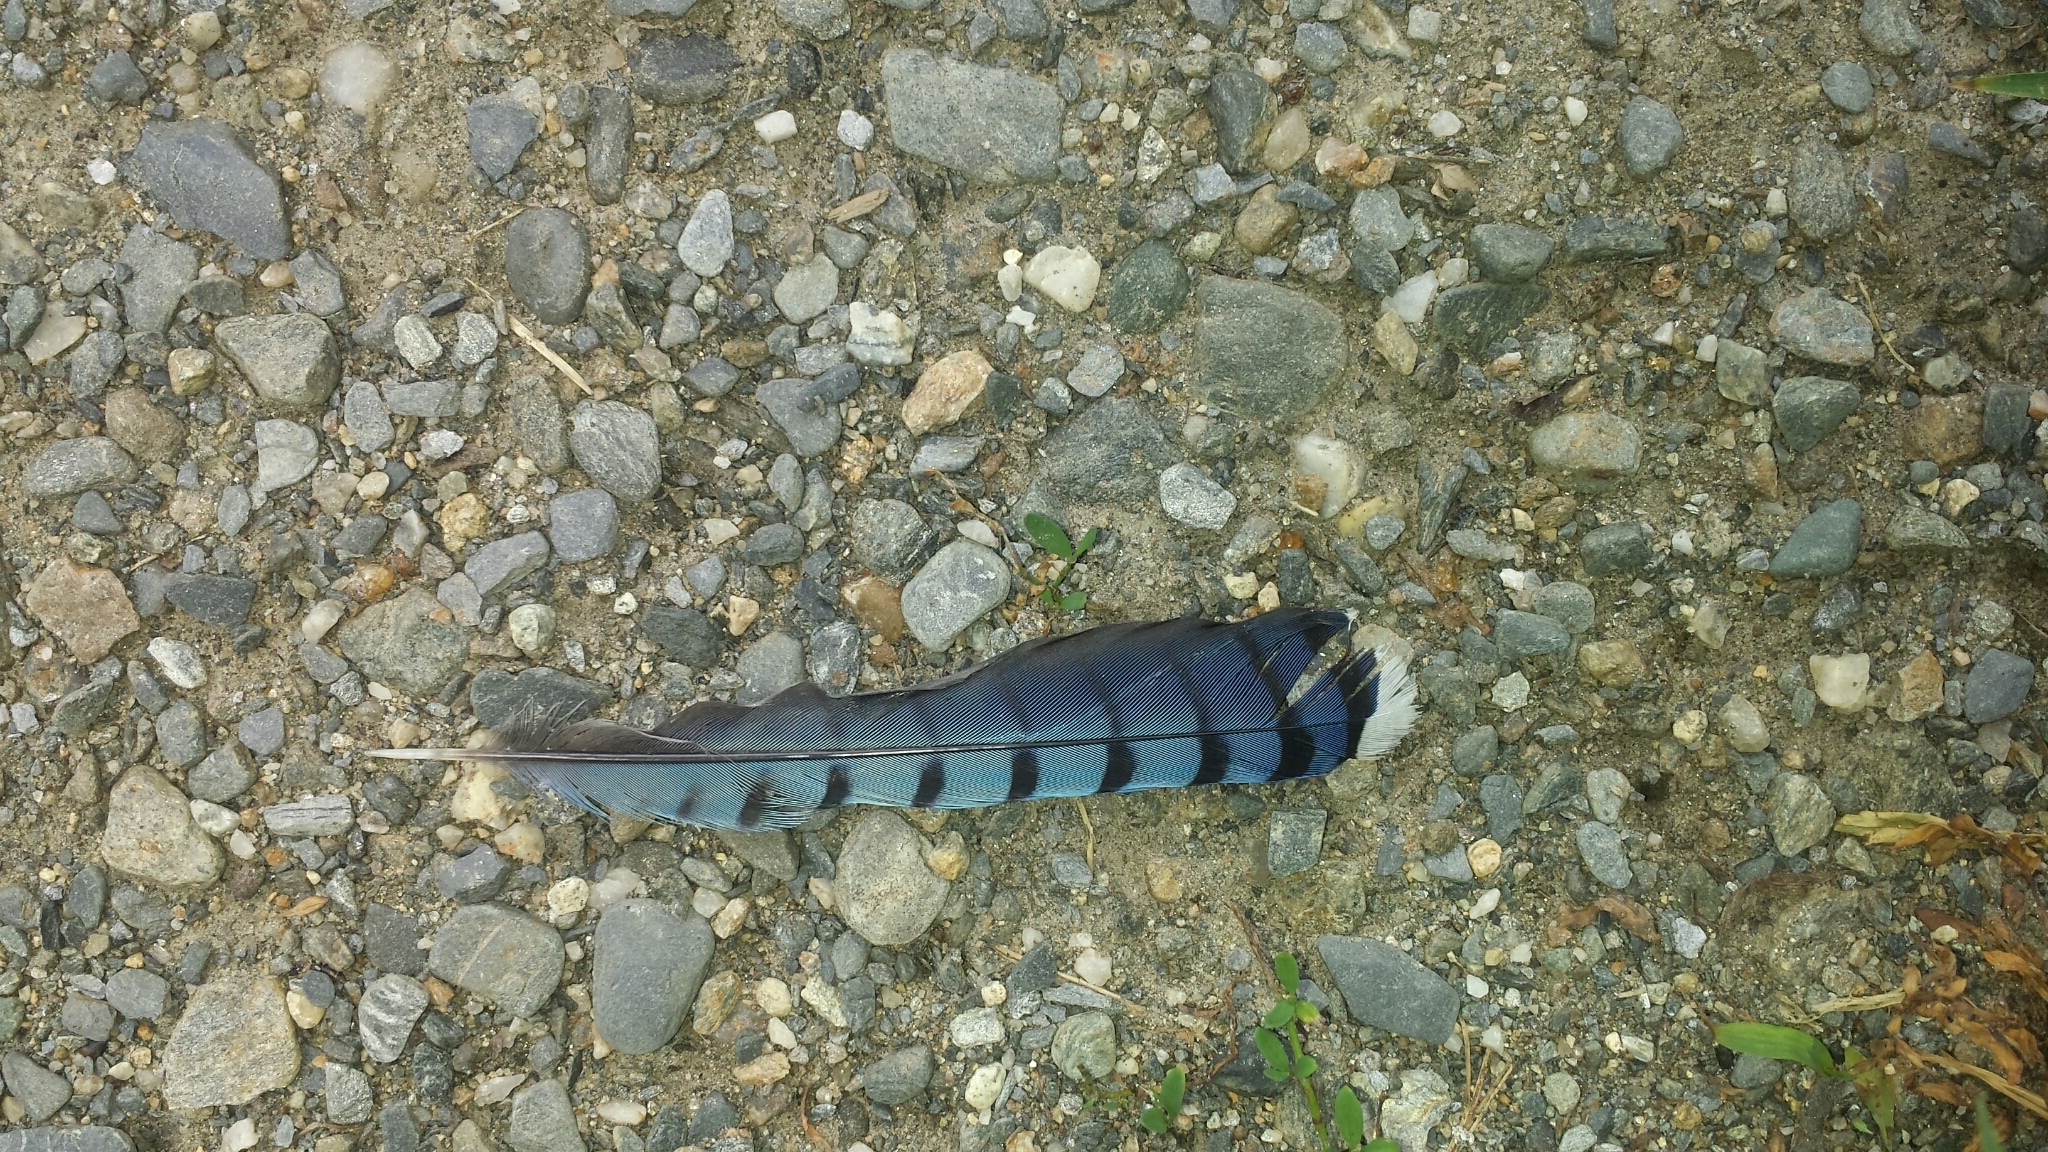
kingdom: Animalia
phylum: Chordata
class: Aves
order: Passeriformes
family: Corvidae
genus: Cyanocitta
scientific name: Cyanocitta cristata
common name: Blue jay
